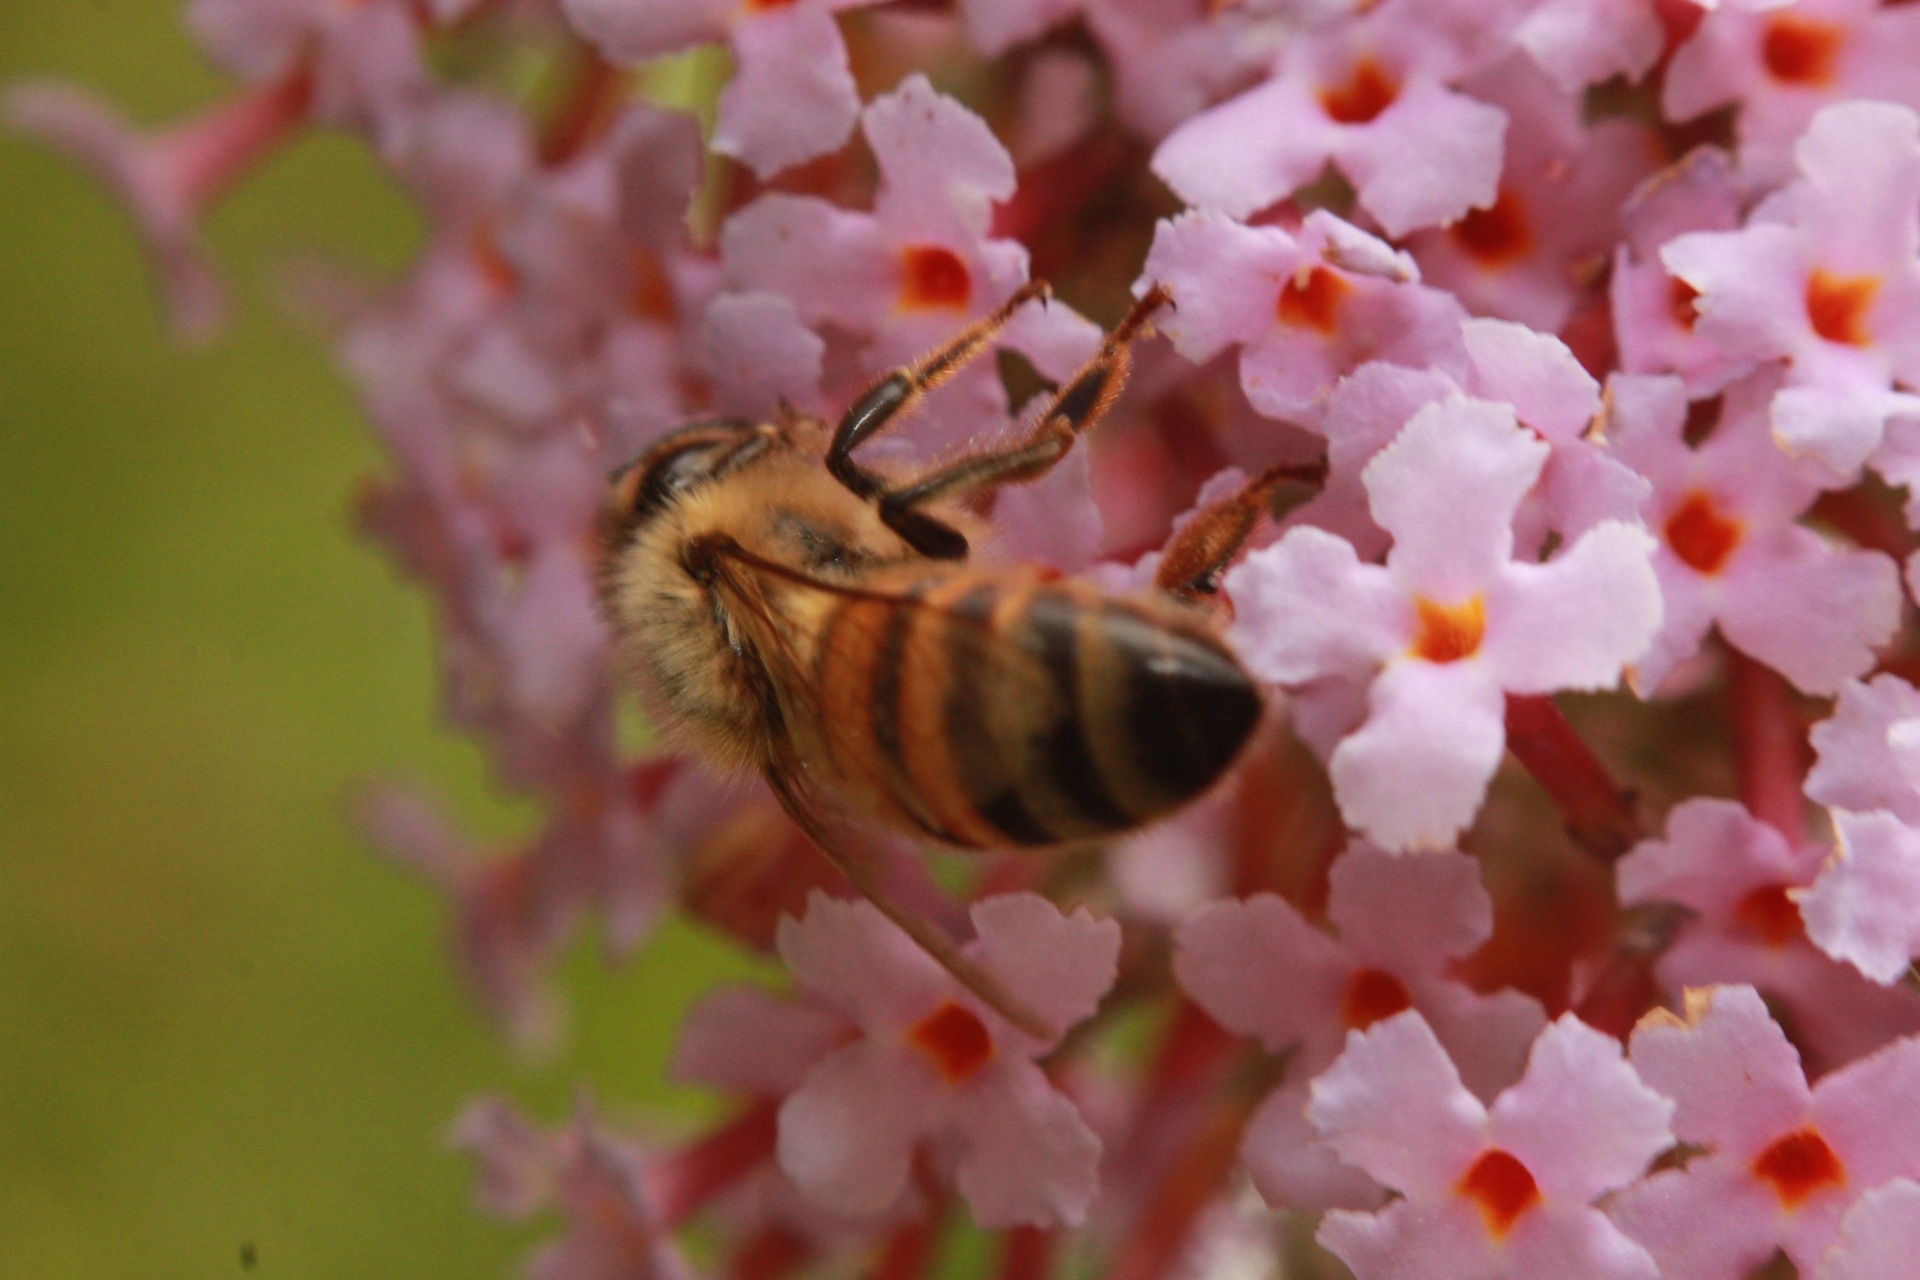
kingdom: Animalia
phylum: Arthropoda
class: Insecta
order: Hymenoptera
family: Apidae
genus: Apis
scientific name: Apis mellifera
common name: Honey bee
